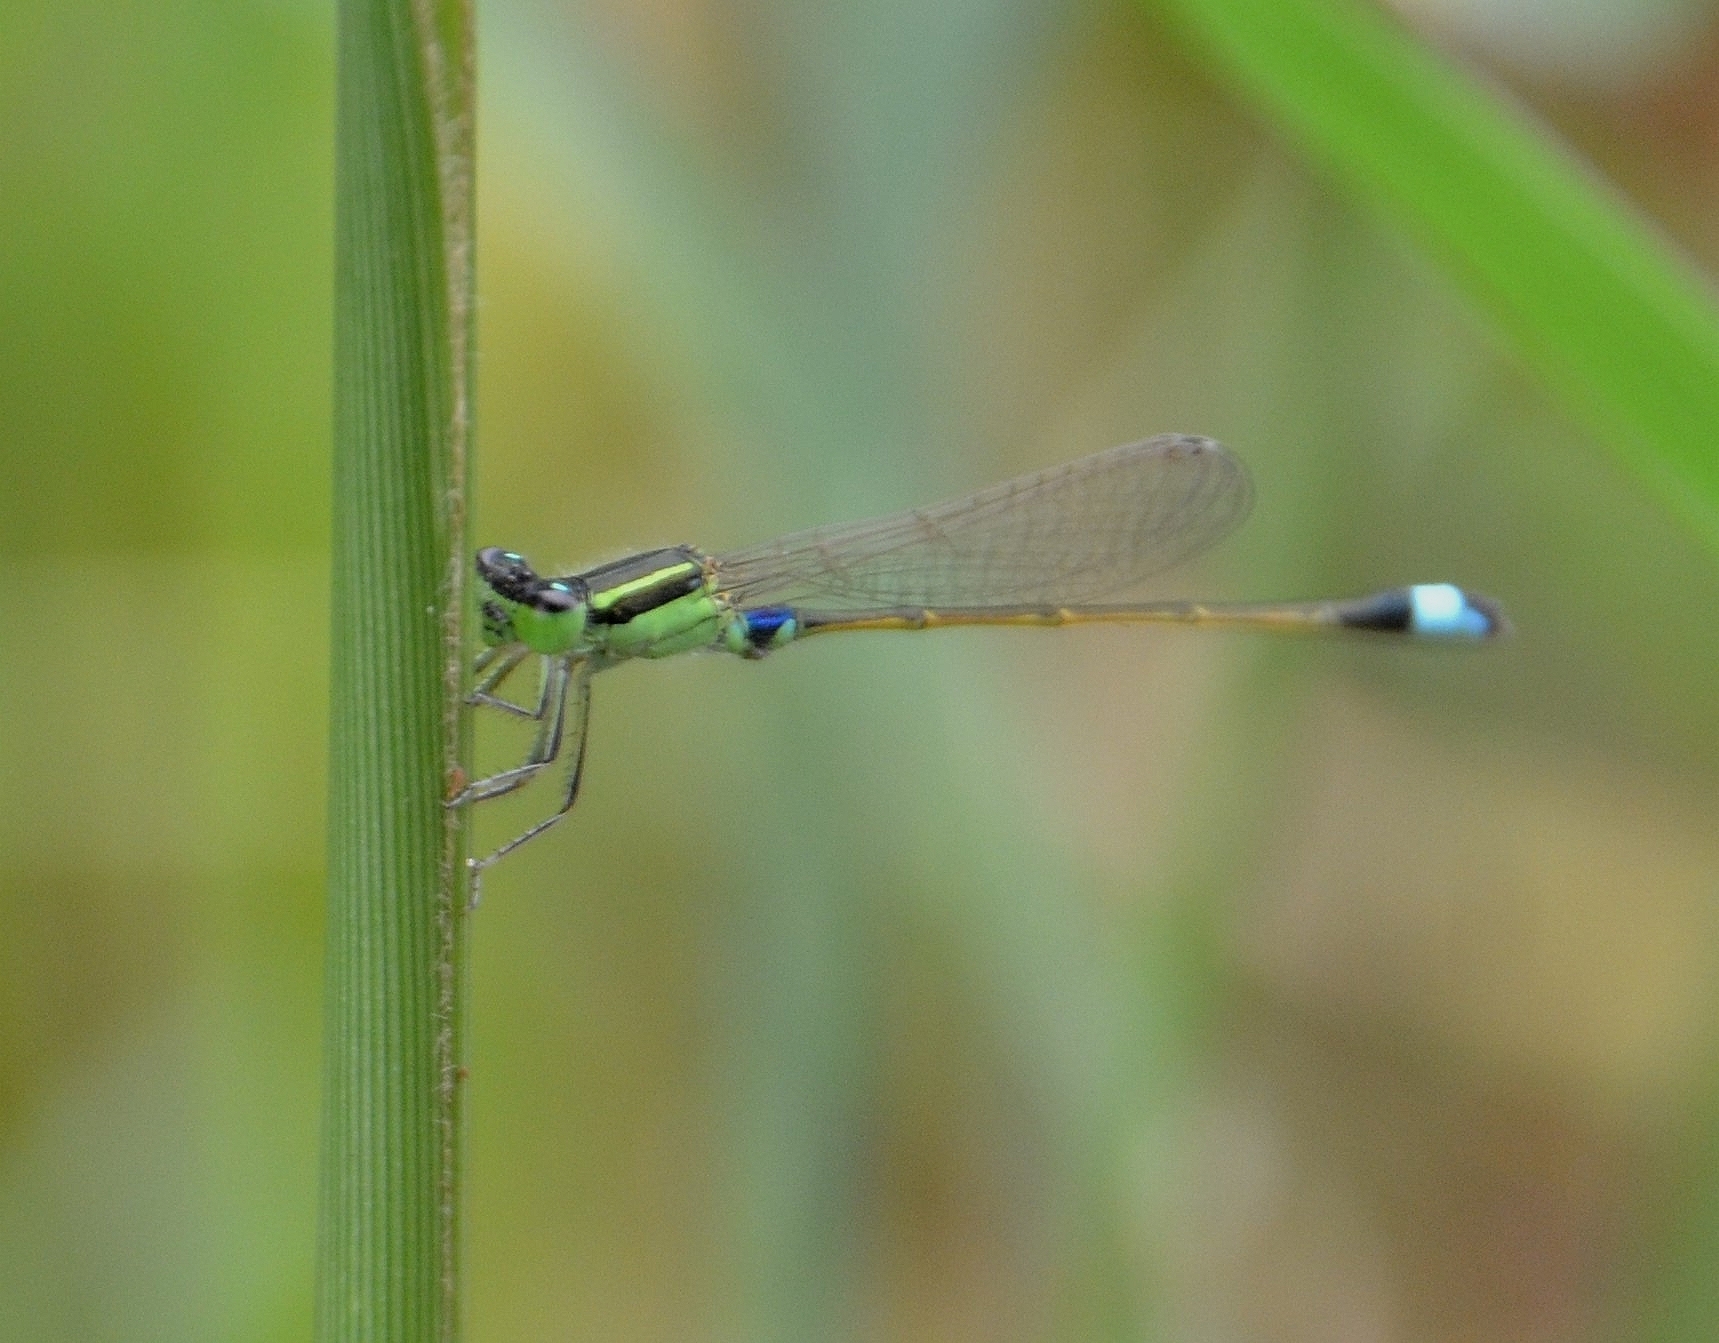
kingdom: Animalia
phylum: Arthropoda
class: Insecta
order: Odonata
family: Coenagrionidae
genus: Ischnura
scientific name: Ischnura senegalensis
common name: Tropical bluetail
